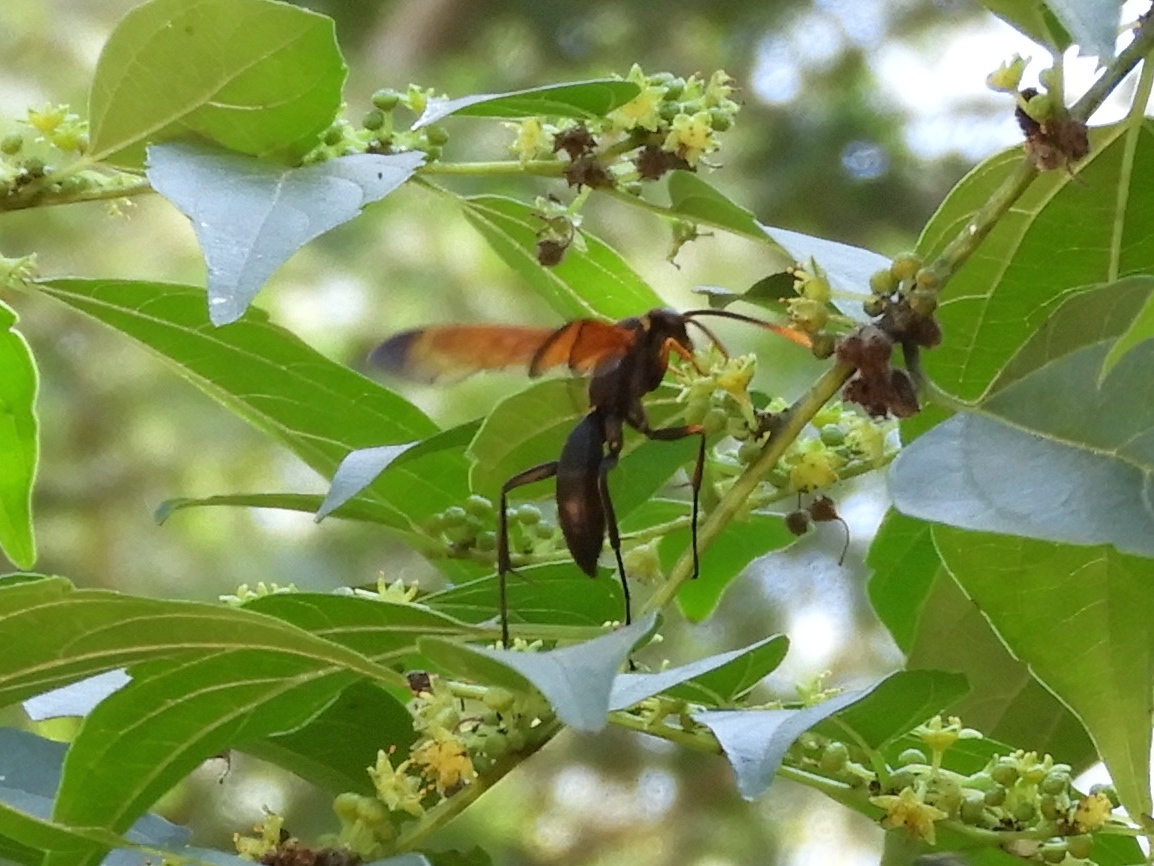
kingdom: Animalia
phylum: Arthropoda
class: Insecta
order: Hymenoptera
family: Pompilidae
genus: Hemipepsis
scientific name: Hemipepsis
